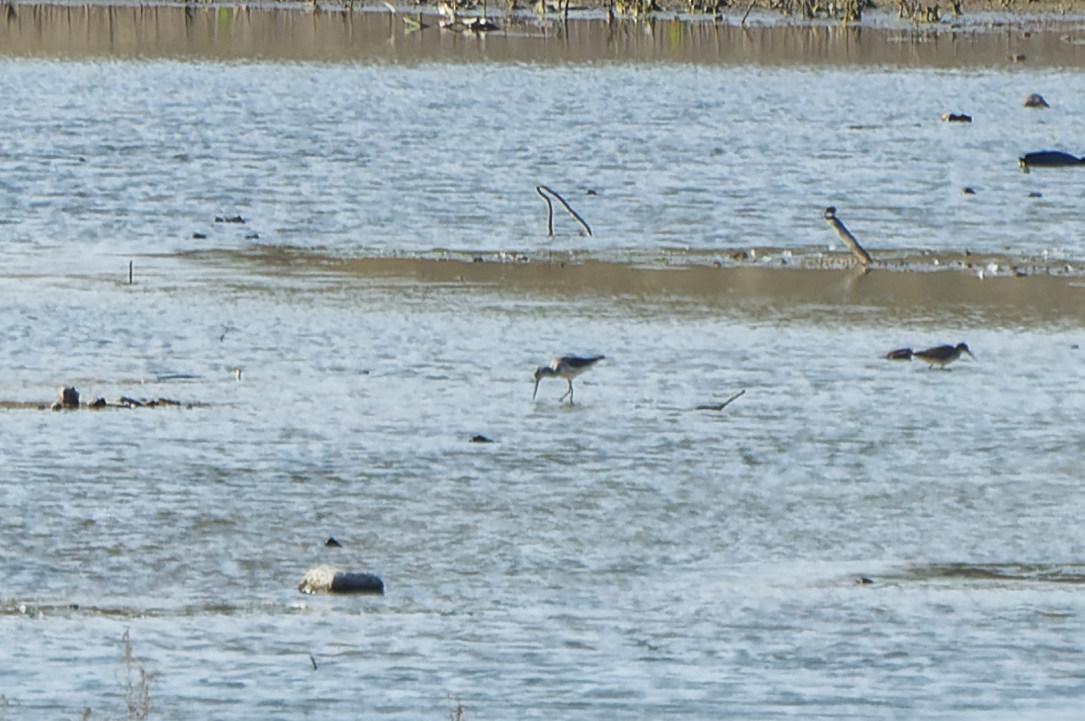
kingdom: Animalia
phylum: Chordata
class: Aves
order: Charadriiformes
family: Scolopacidae
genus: Tringa
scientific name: Tringa nebularia
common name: Common greenshank
